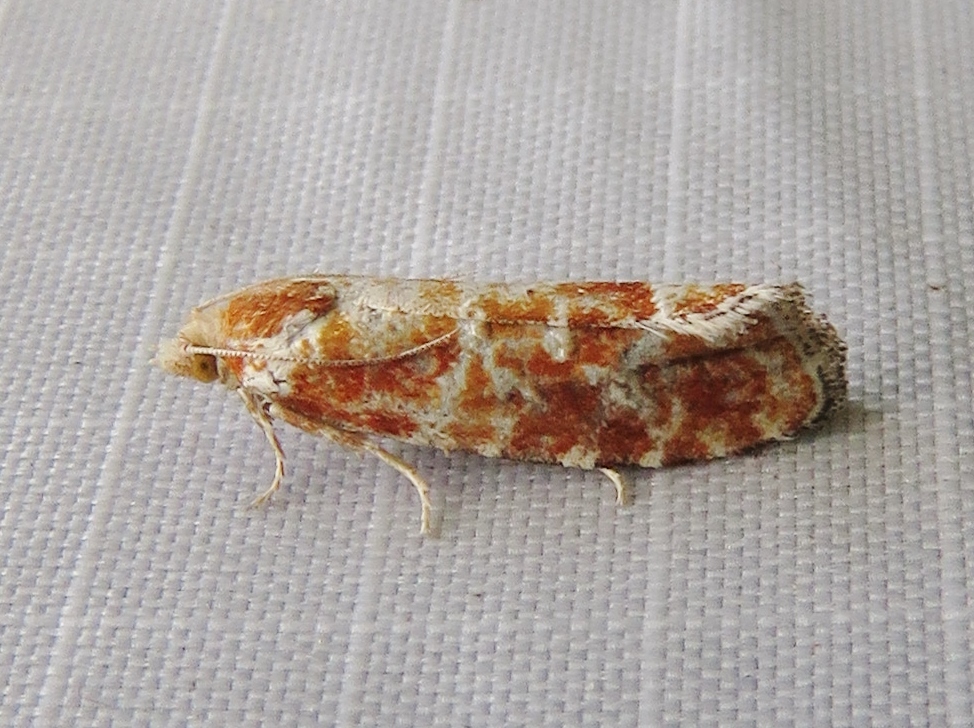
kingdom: Animalia
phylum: Arthropoda
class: Insecta
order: Lepidoptera
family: Tortricidae
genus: Rhyacionia
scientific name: Rhyacionia buoliana
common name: European pine shoot moth
